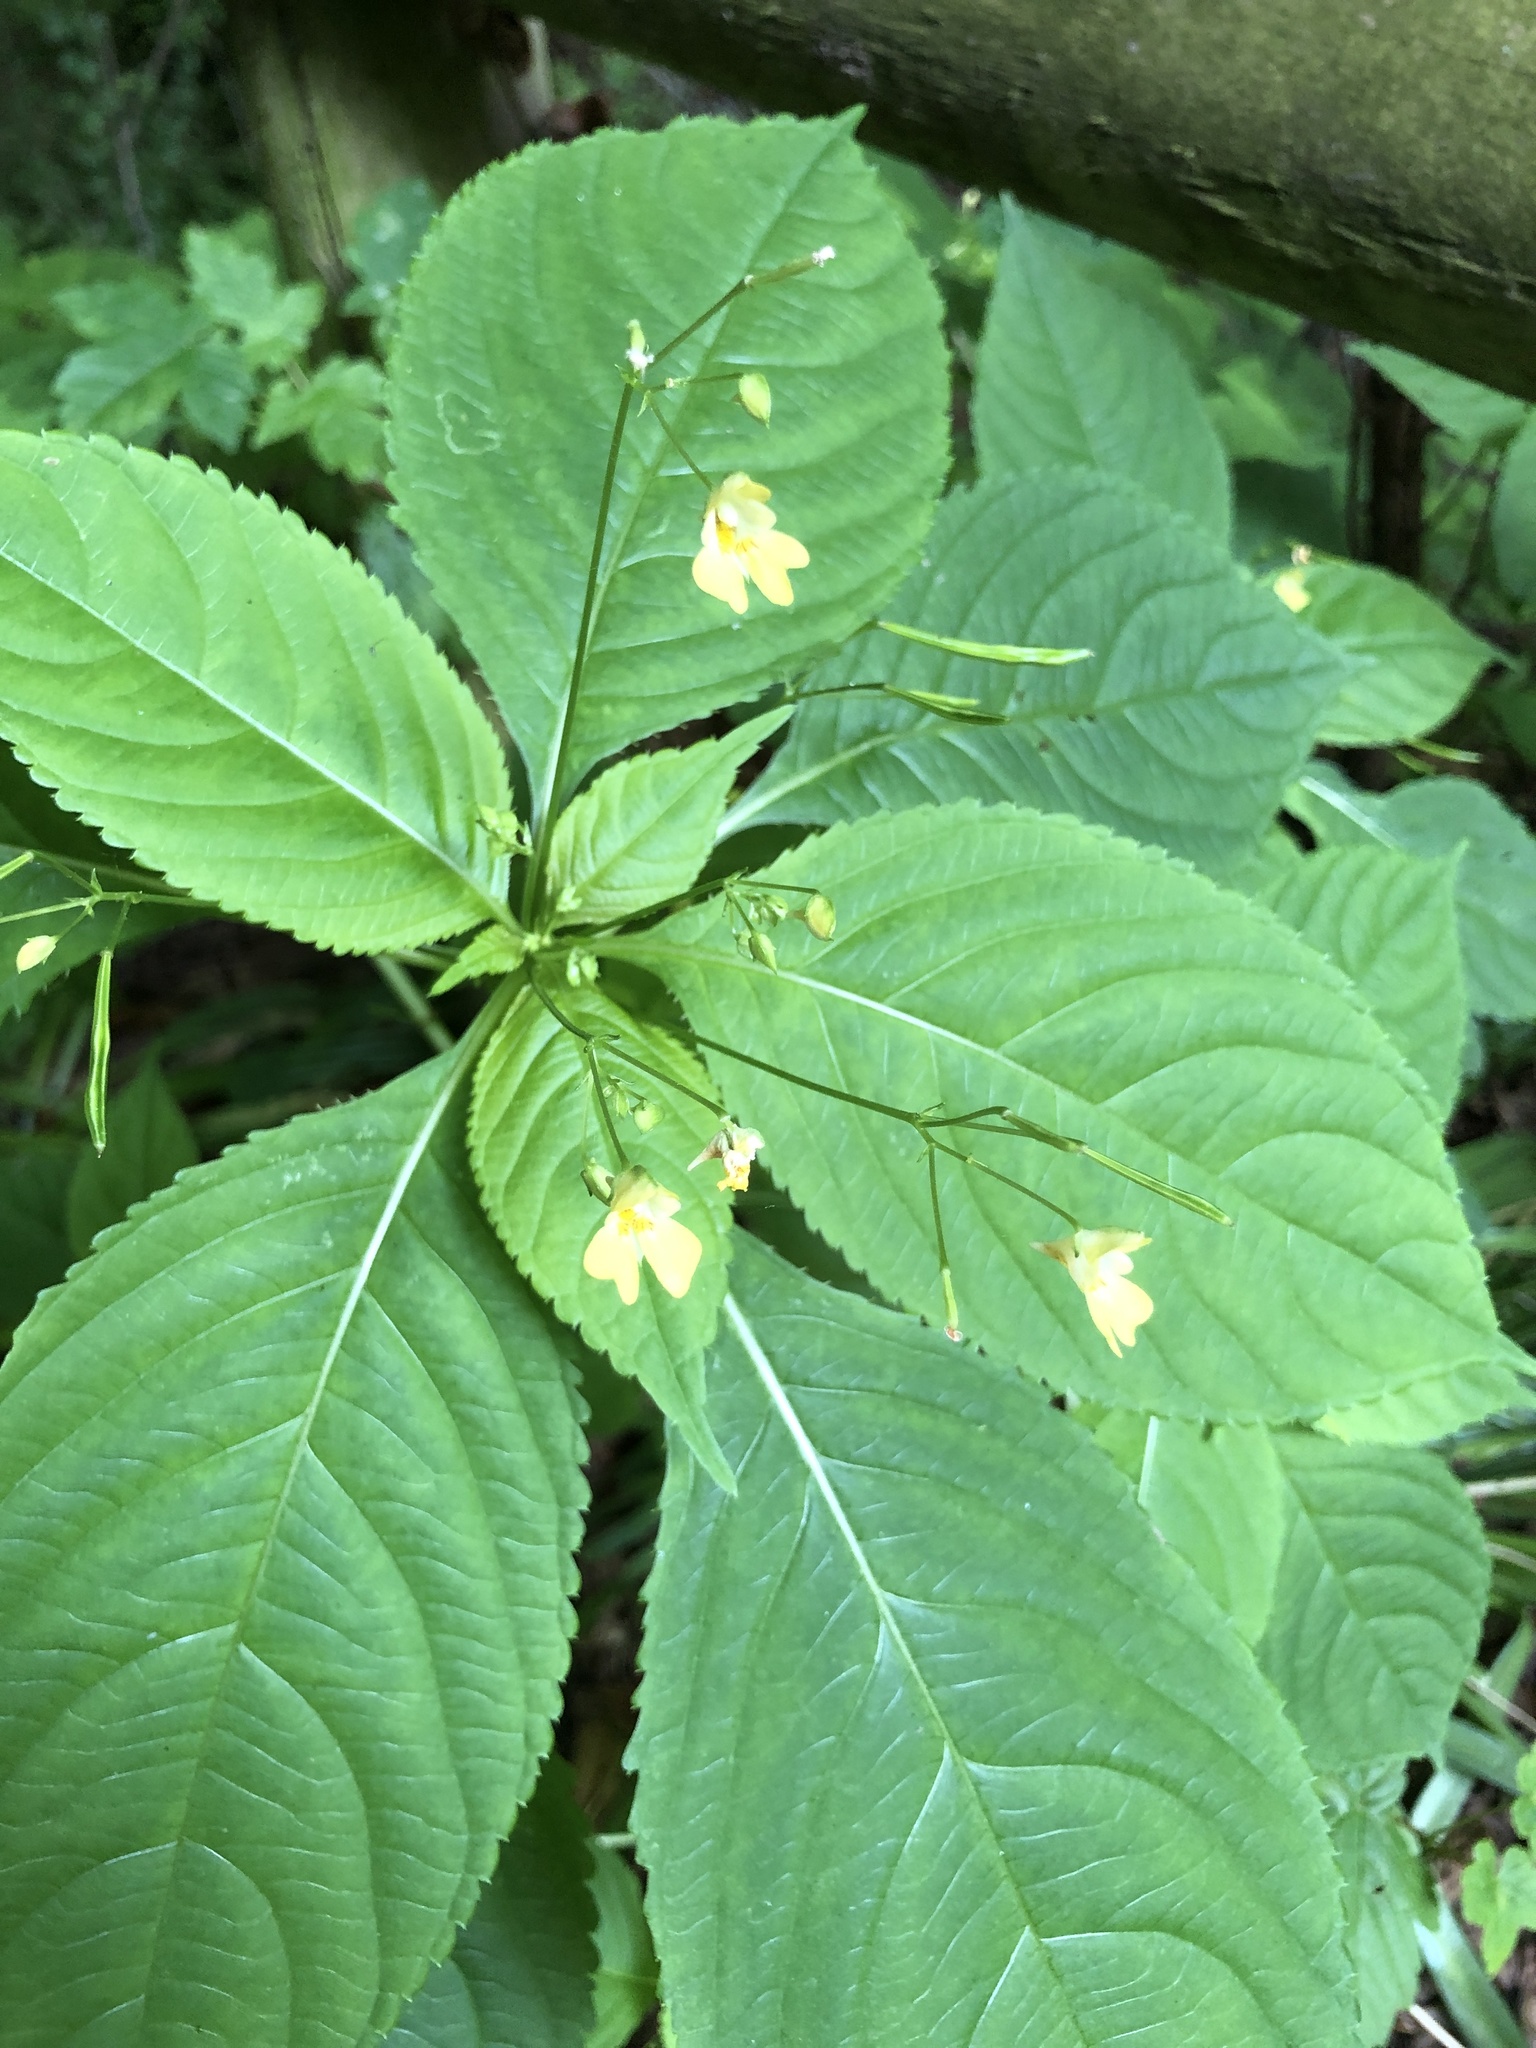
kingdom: Plantae
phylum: Tracheophyta
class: Magnoliopsida
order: Ericales
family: Balsaminaceae
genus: Impatiens
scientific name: Impatiens parviflora
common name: Small balsam
